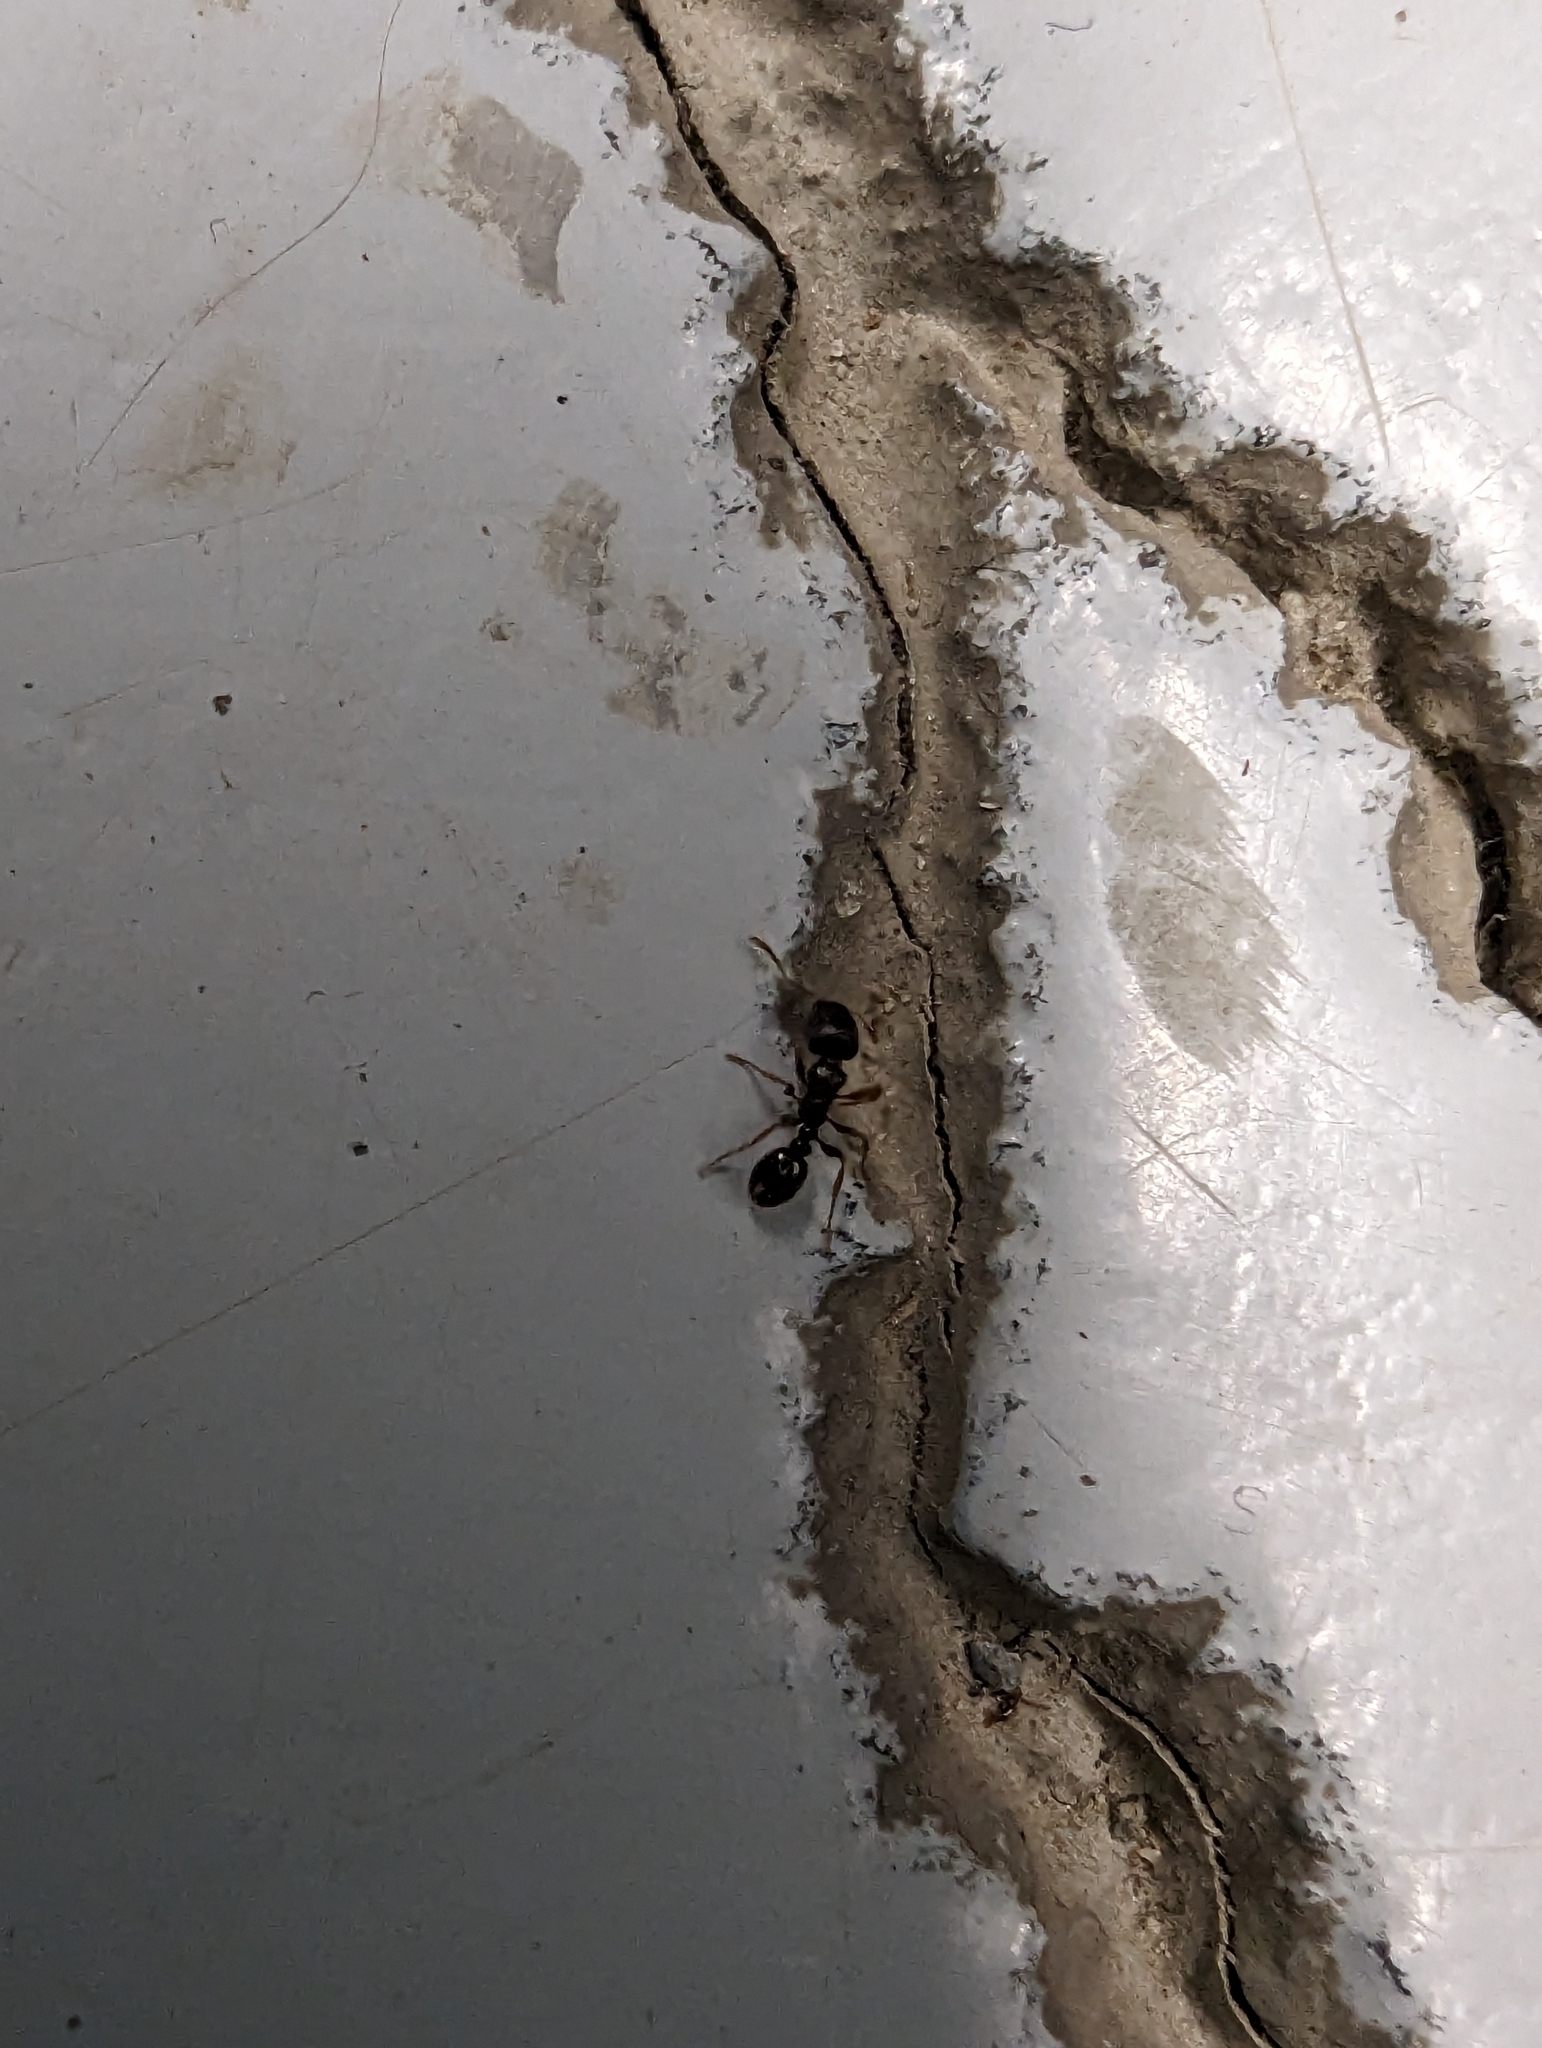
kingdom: Animalia
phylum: Arthropoda
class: Insecta
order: Hymenoptera
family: Formicidae
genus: Tetramorium
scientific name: Tetramorium immigrans
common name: Pavement ant
